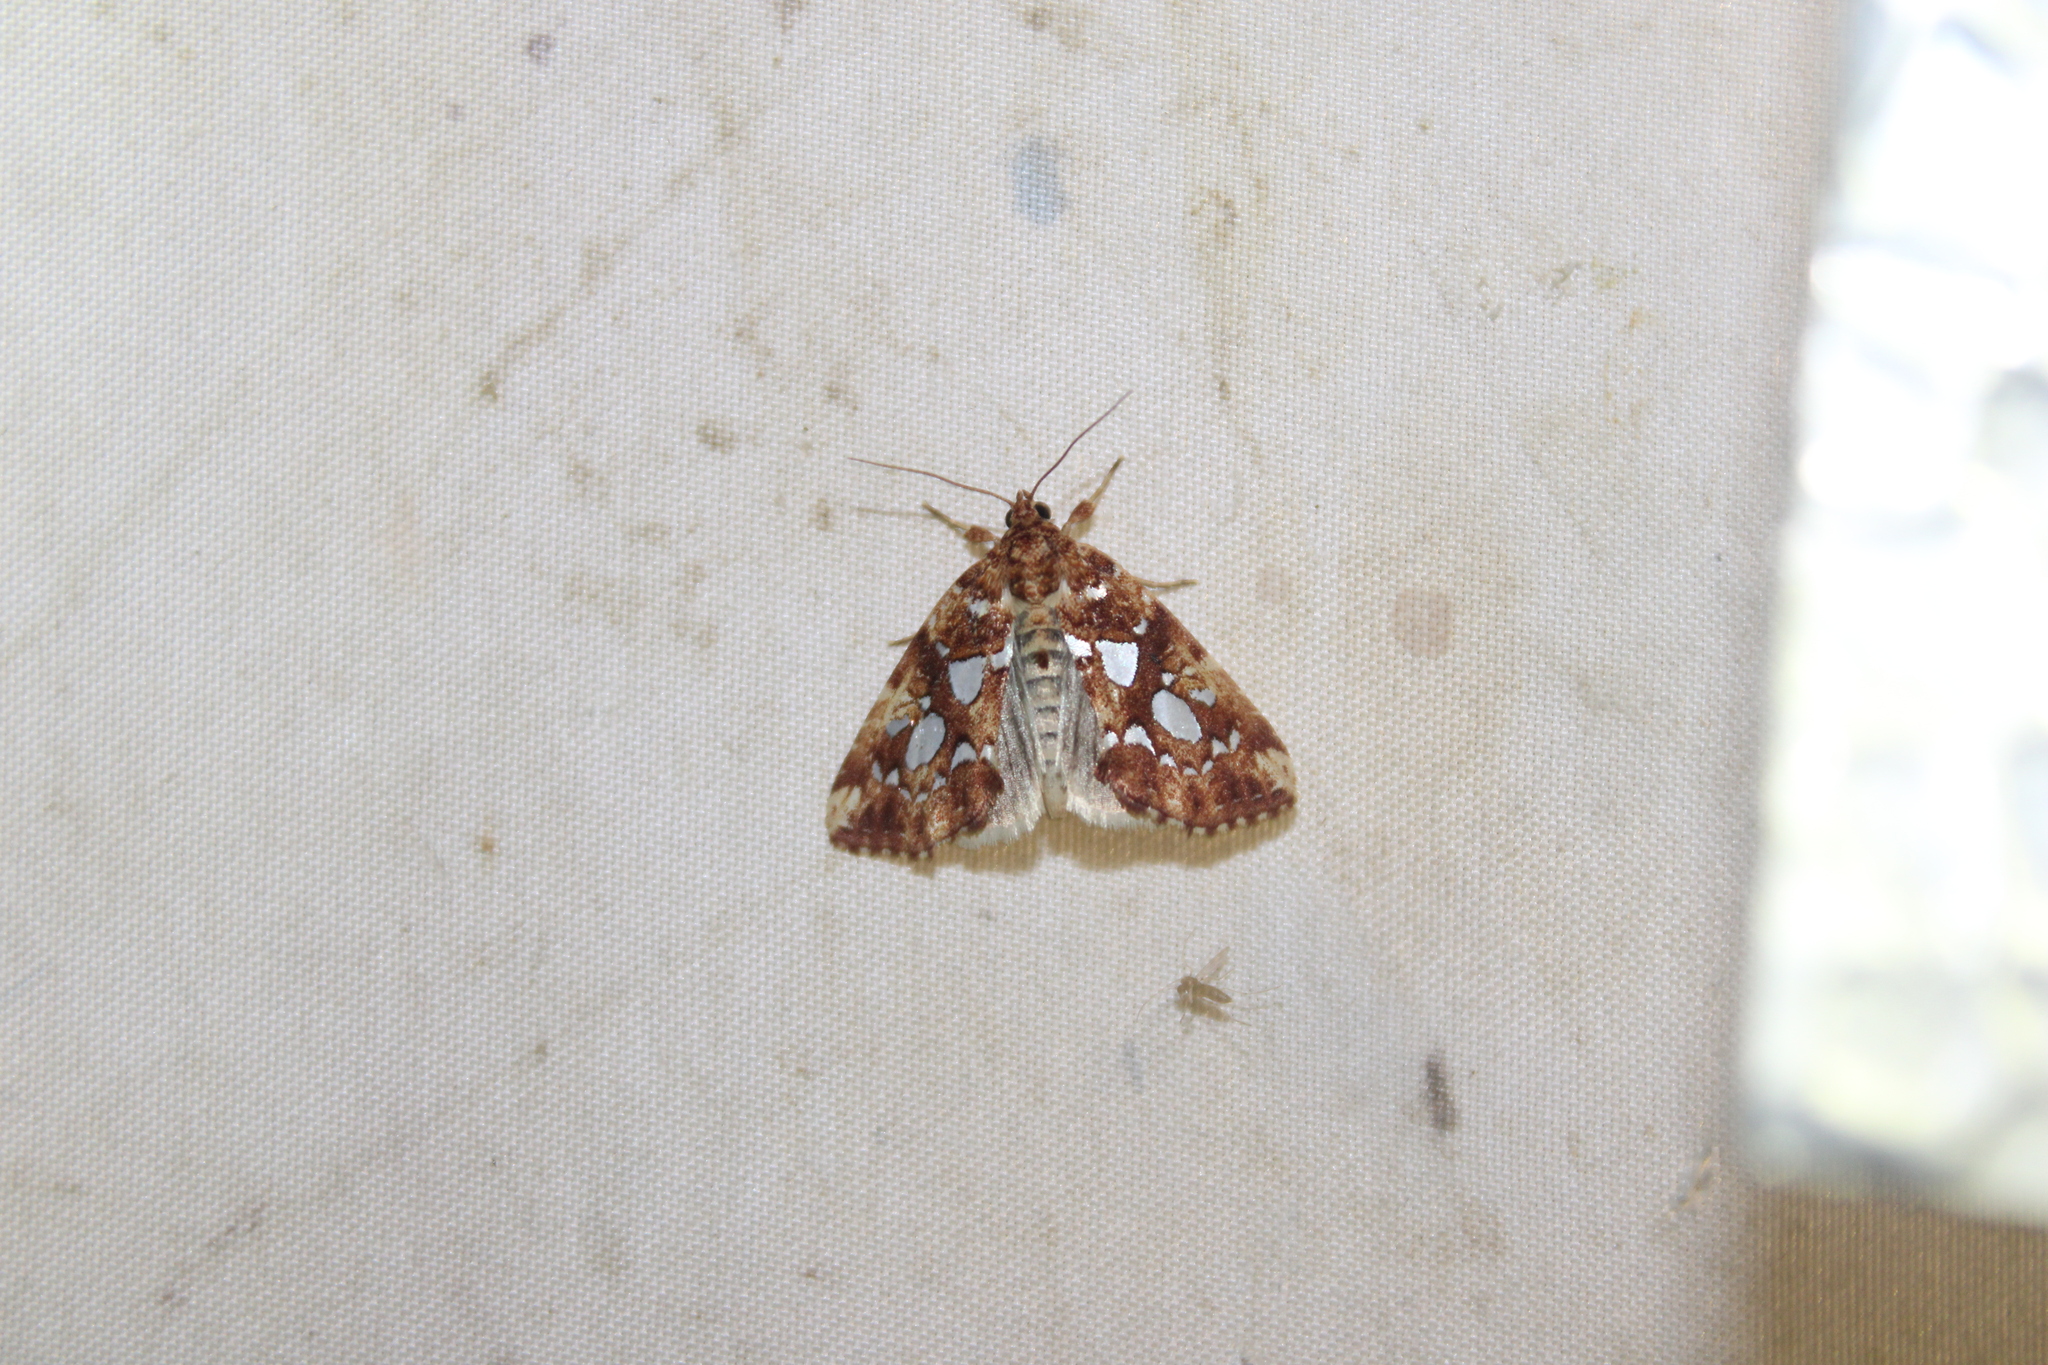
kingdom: Animalia
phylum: Arthropoda
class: Insecta
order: Lepidoptera
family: Noctuidae
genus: Callopistria
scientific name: Callopistria cordata
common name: Silver-spotted fern moth
